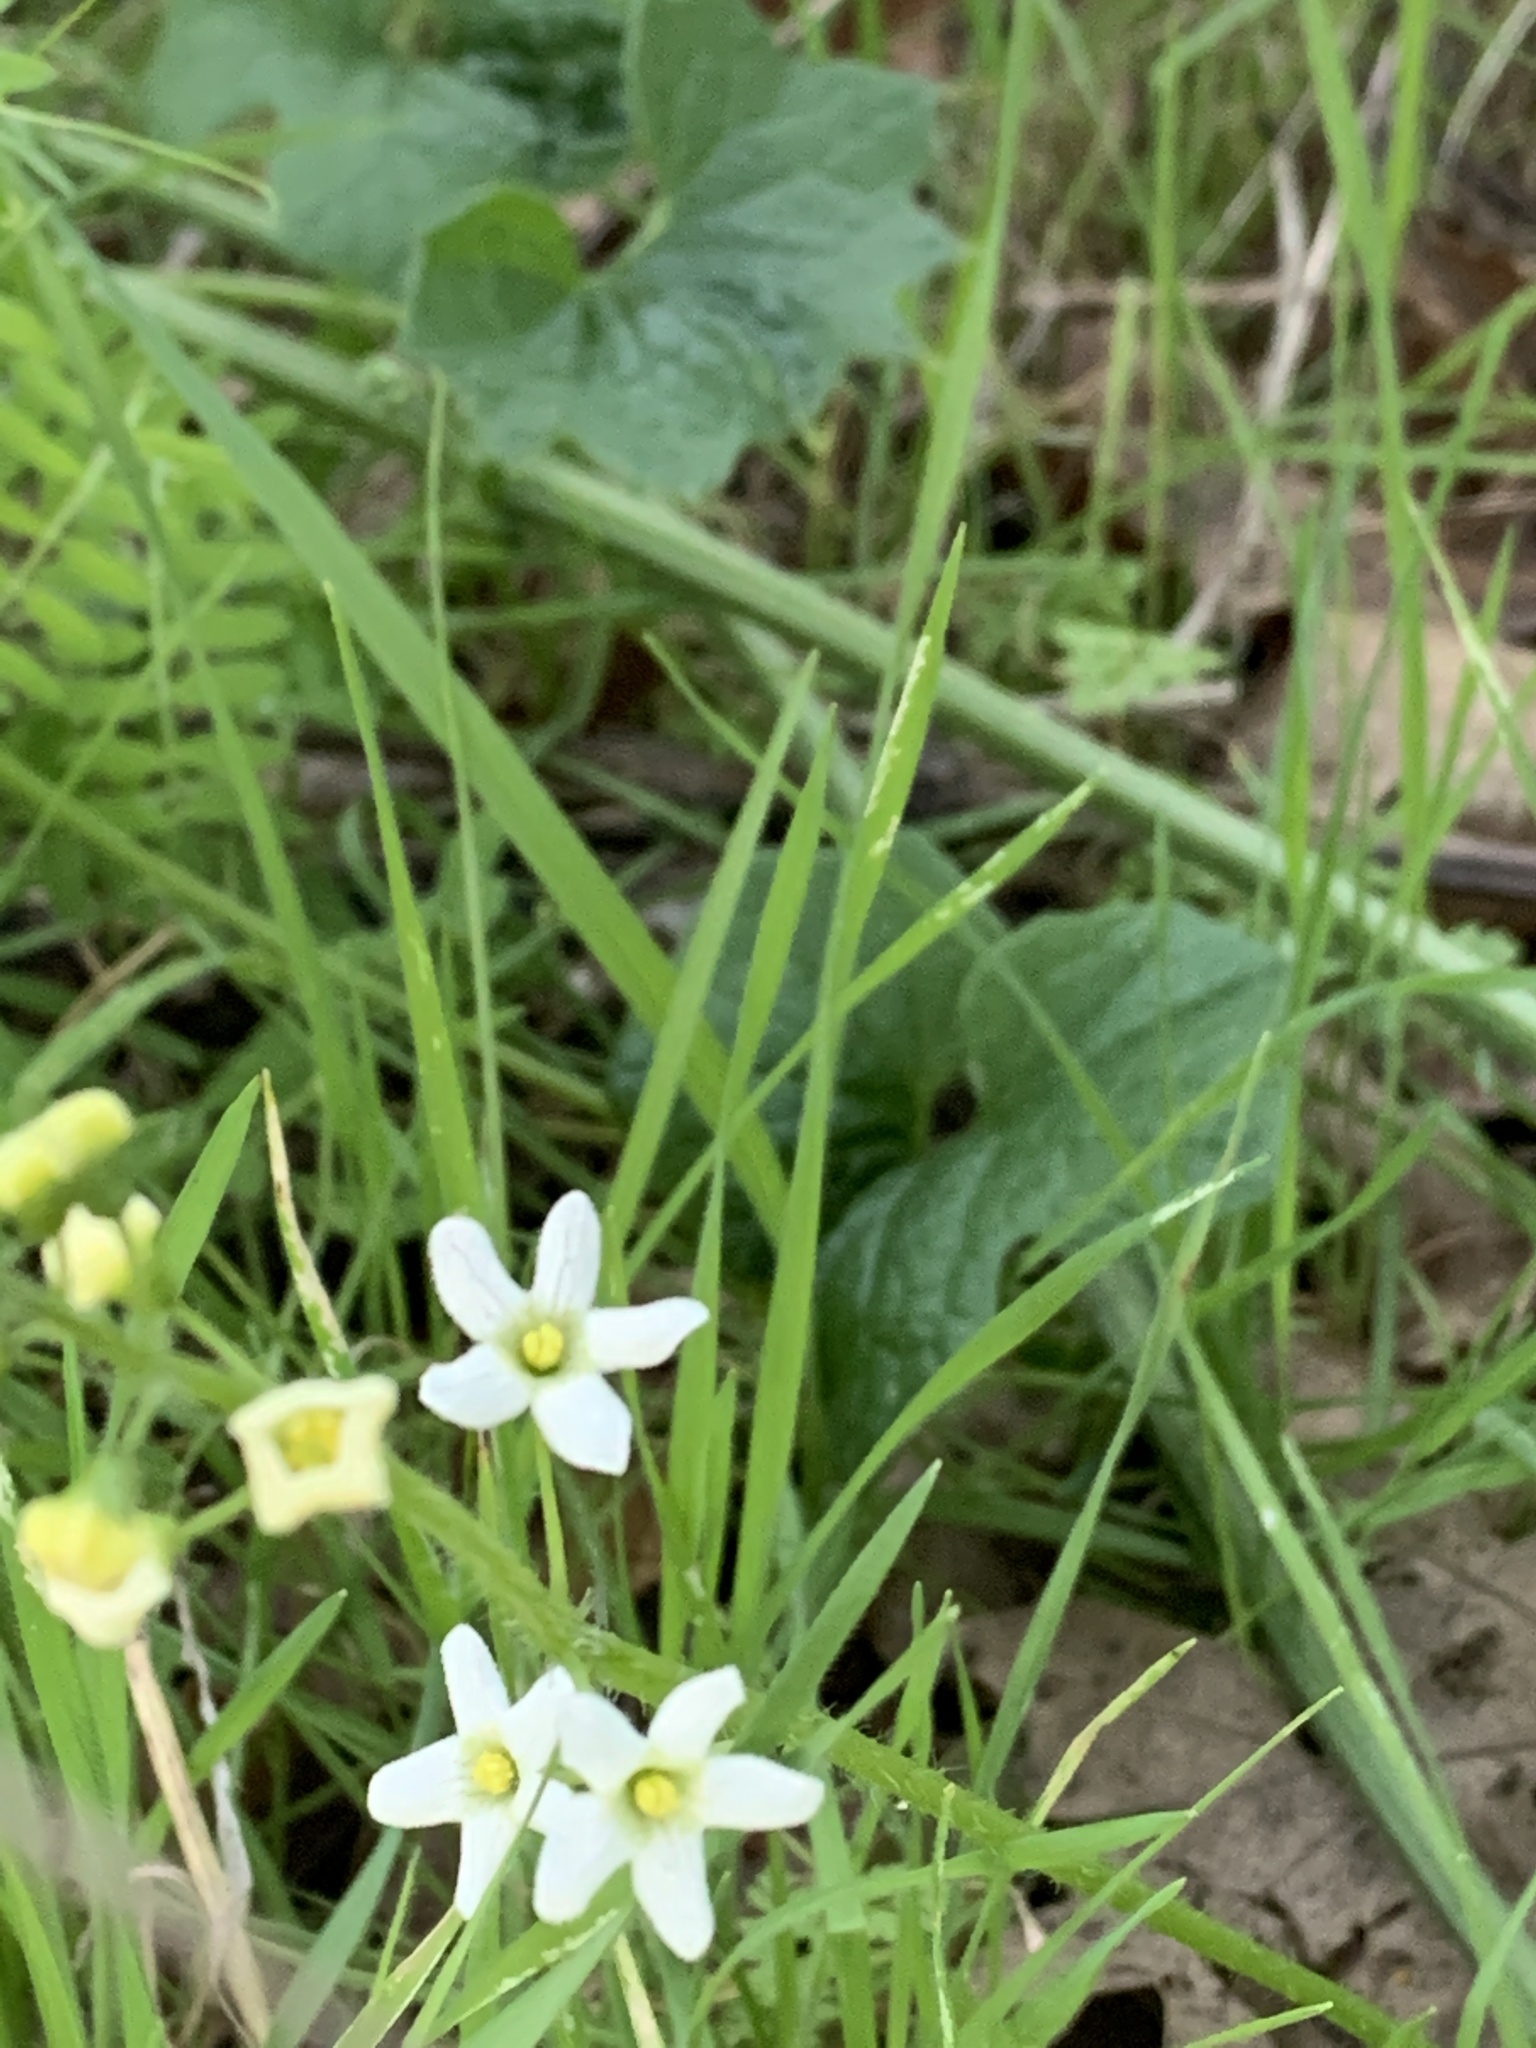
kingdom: Plantae
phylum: Tracheophyta
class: Magnoliopsida
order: Cucurbitales
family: Cucurbitaceae
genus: Marah
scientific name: Marah fabacea
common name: California manroot
